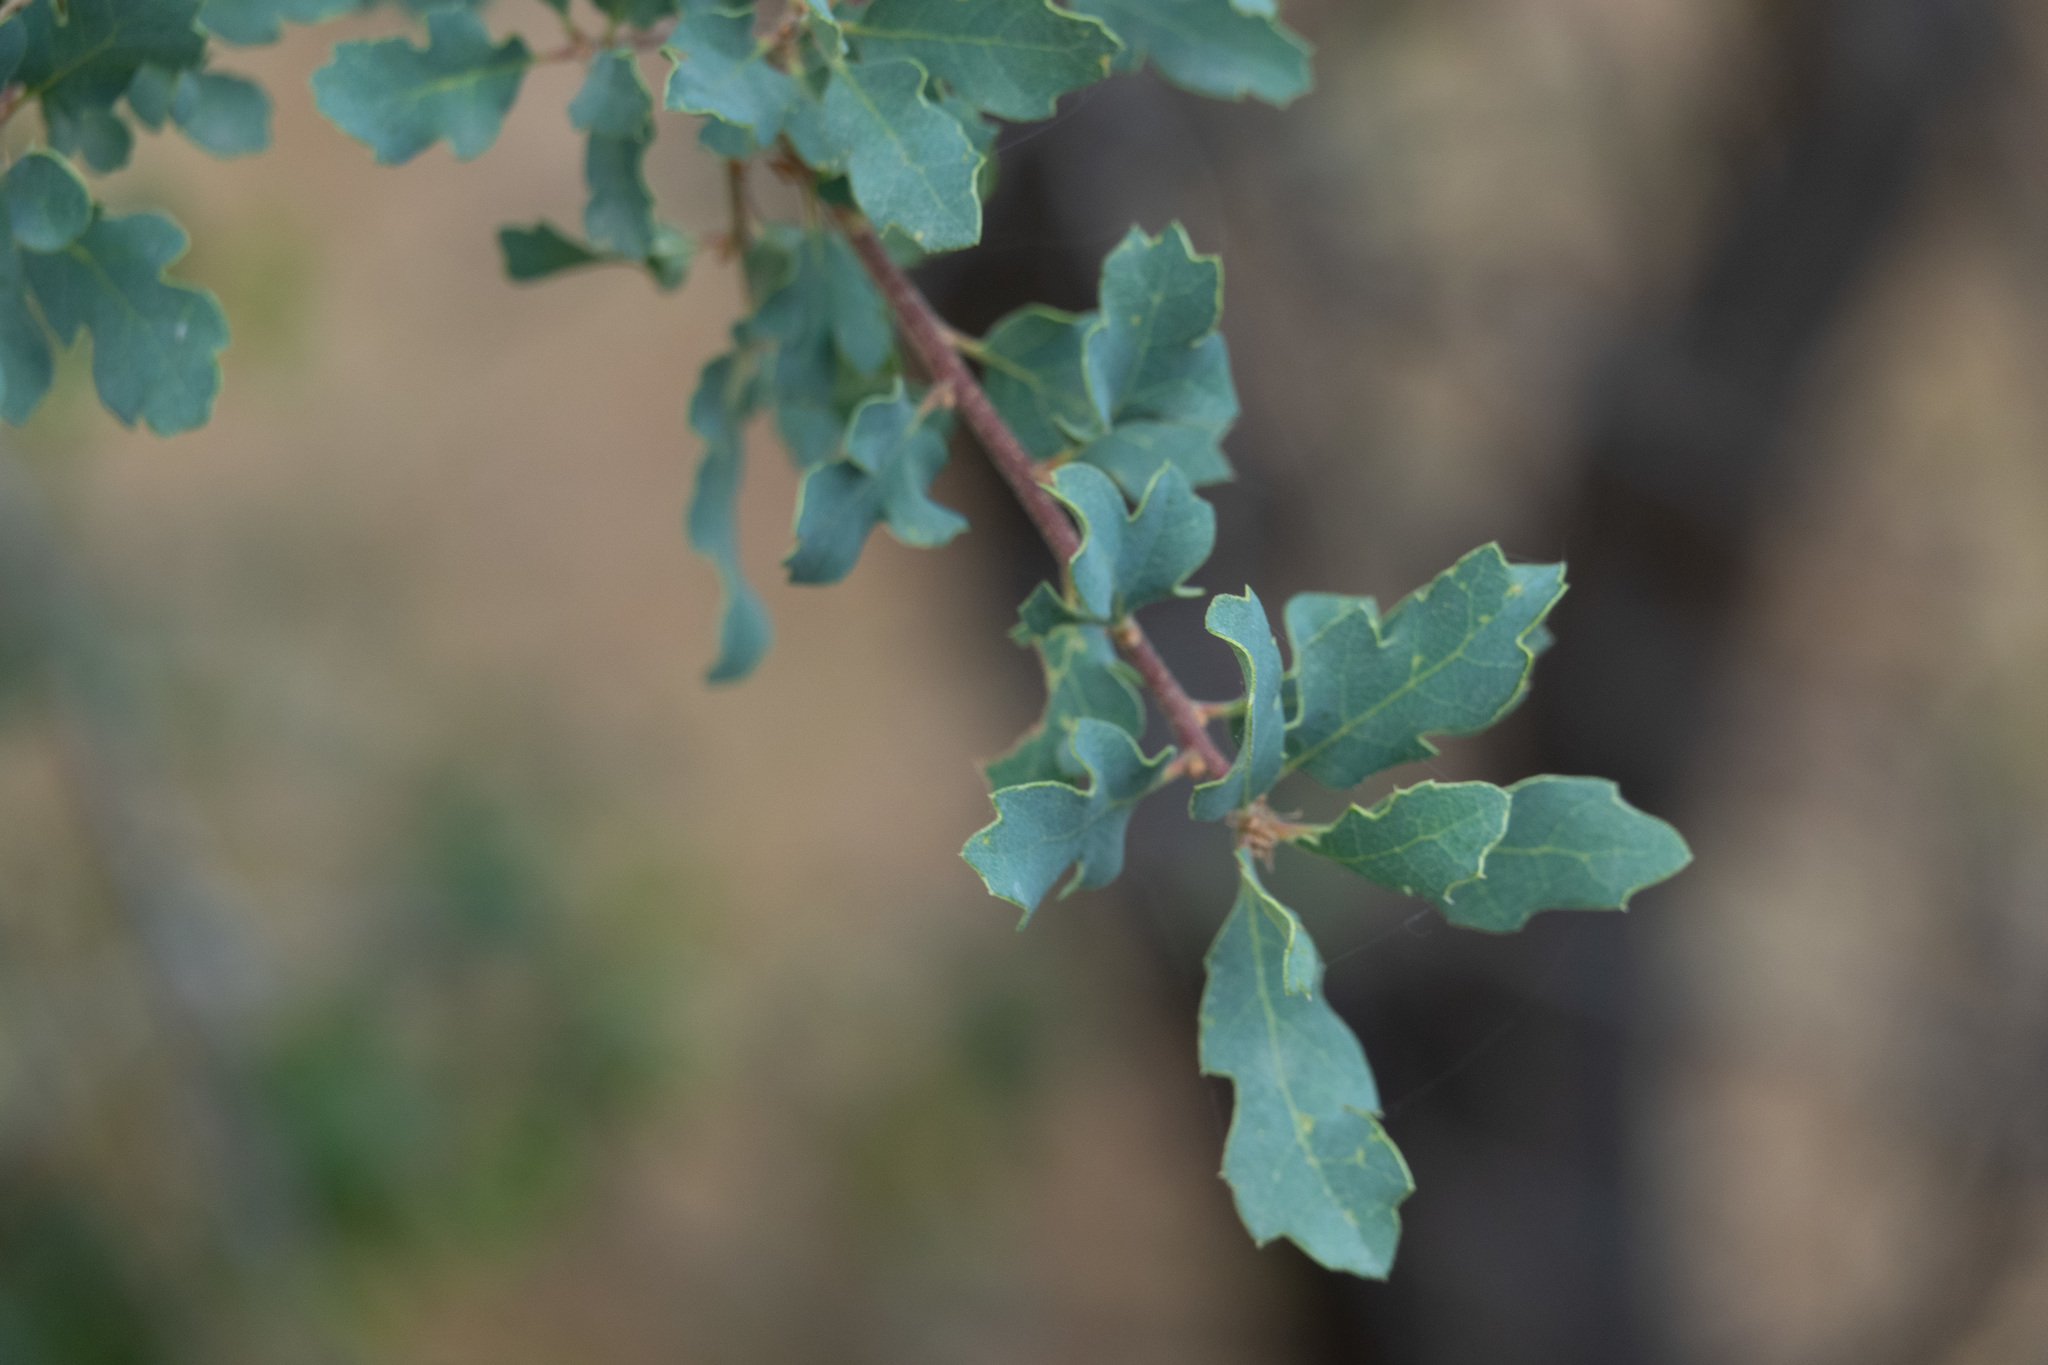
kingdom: Plantae
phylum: Tracheophyta
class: Magnoliopsida
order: Fagales
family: Fagaceae
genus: Quercus
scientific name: Quercus douglasii
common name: Blue oak
